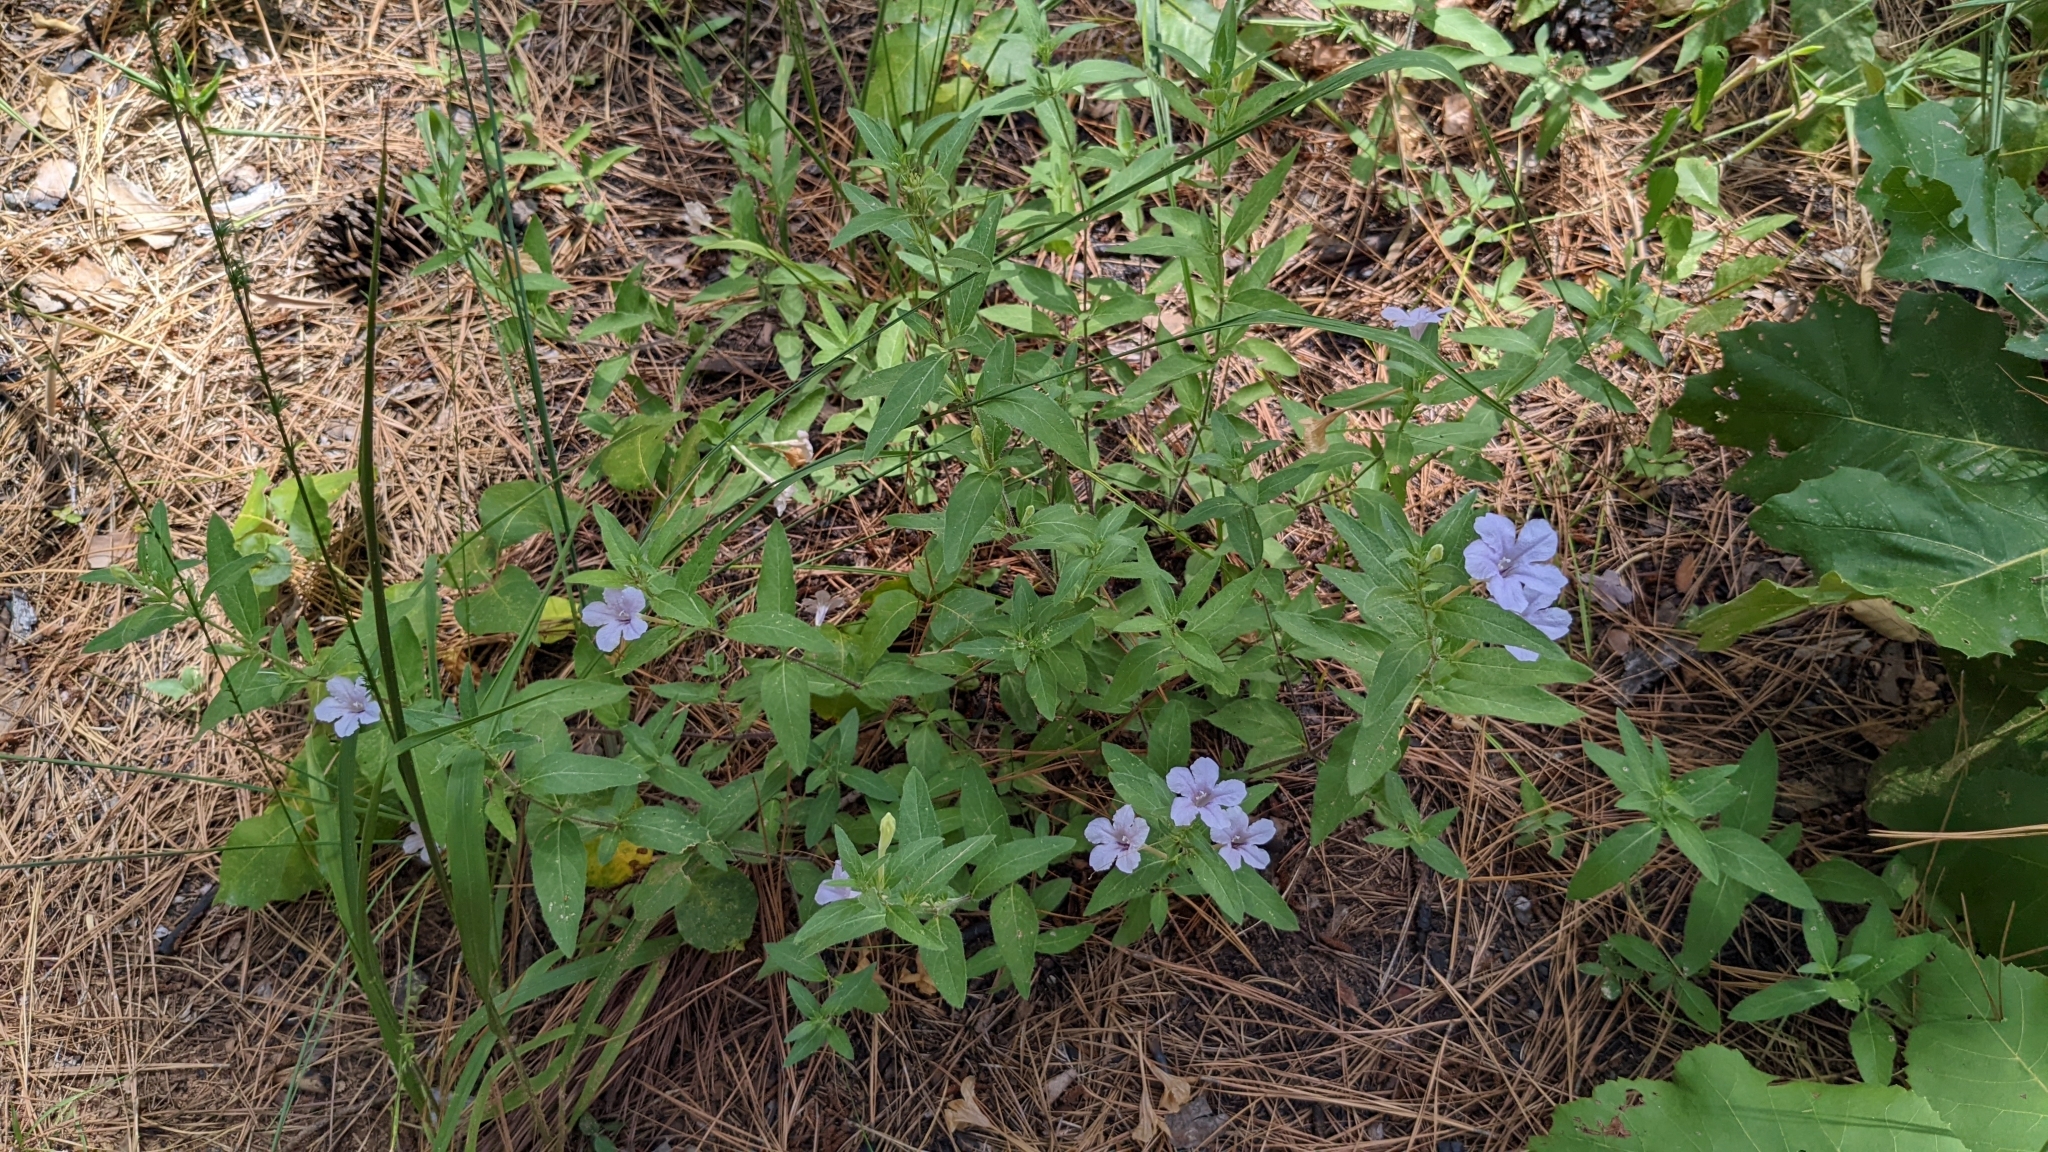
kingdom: Plantae
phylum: Tracheophyta
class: Magnoliopsida
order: Lamiales
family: Acanthaceae
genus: Ruellia
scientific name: Ruellia humilis
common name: Fringe-leaf ruellia
